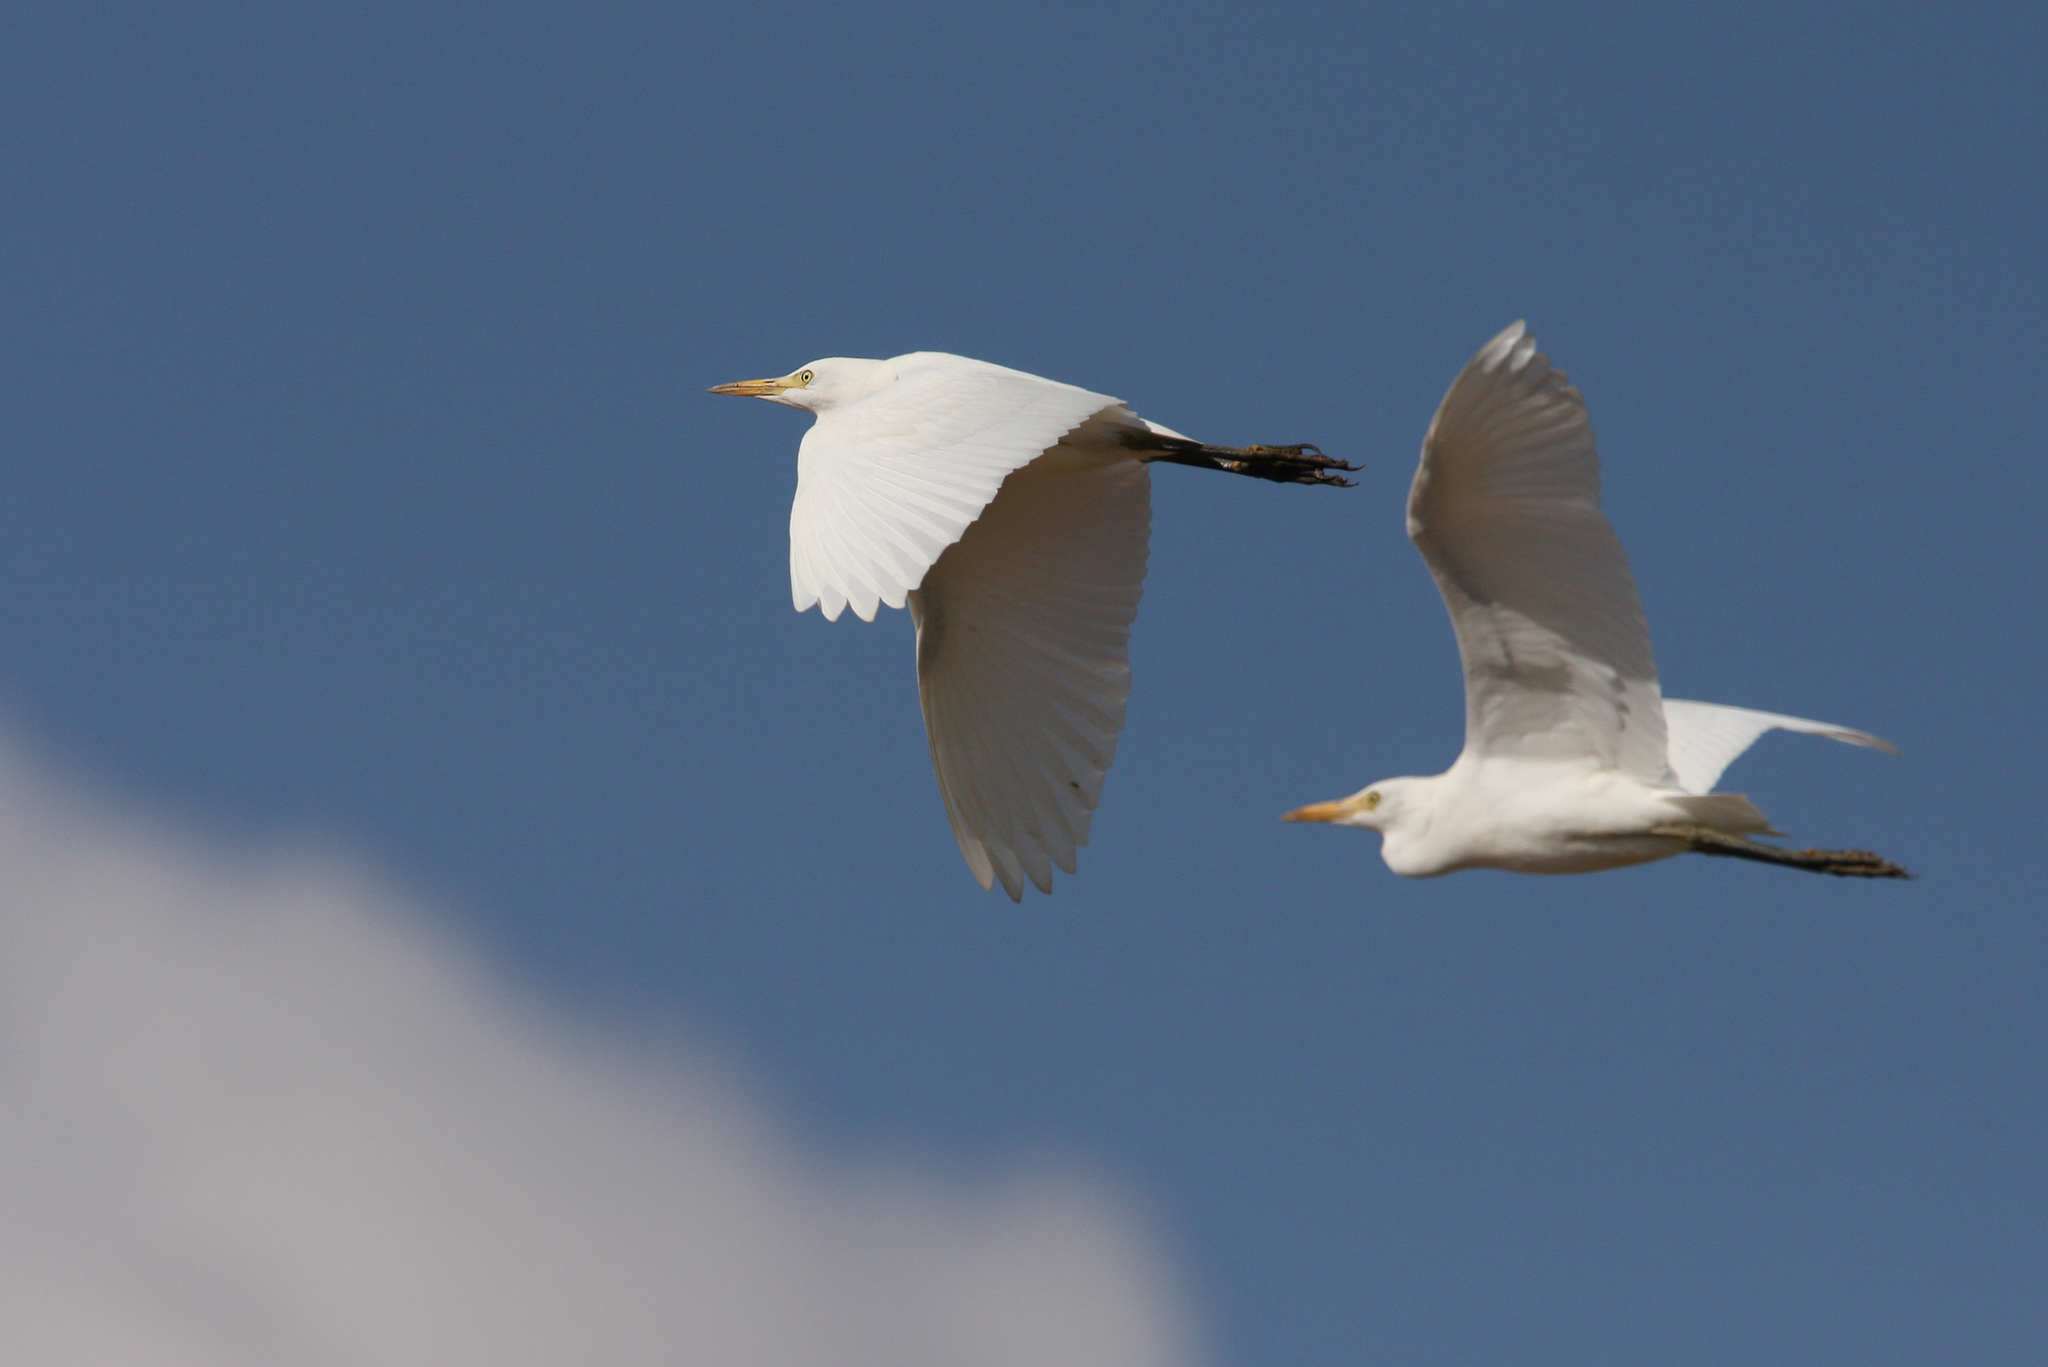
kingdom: Animalia
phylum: Chordata
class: Aves
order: Pelecaniformes
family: Ardeidae
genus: Bubulcus
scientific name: Bubulcus ibis
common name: Cattle egret
